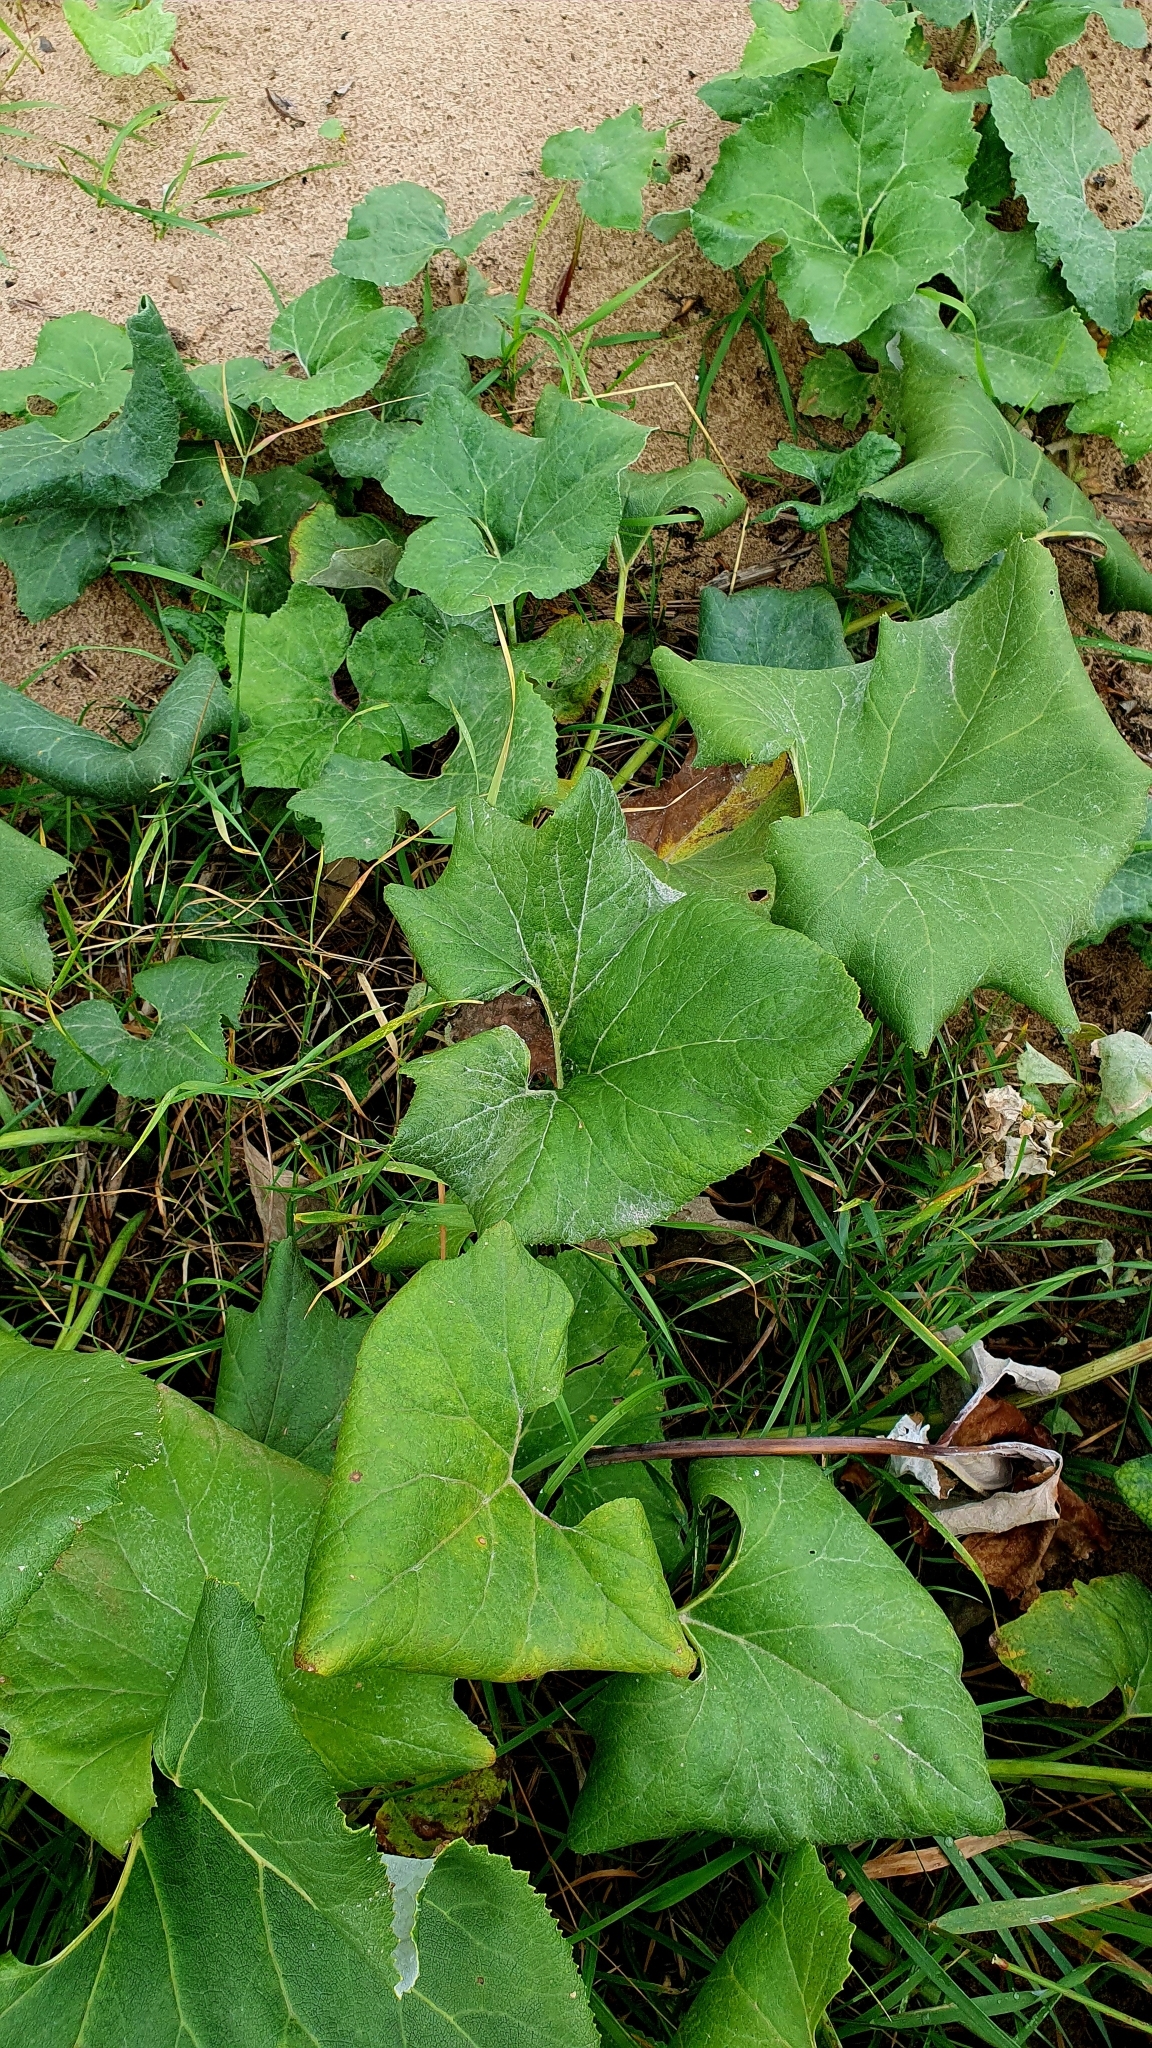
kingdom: Plantae
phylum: Tracheophyta
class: Magnoliopsida
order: Asterales
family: Asteraceae
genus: Petasites
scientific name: Petasites spurius
